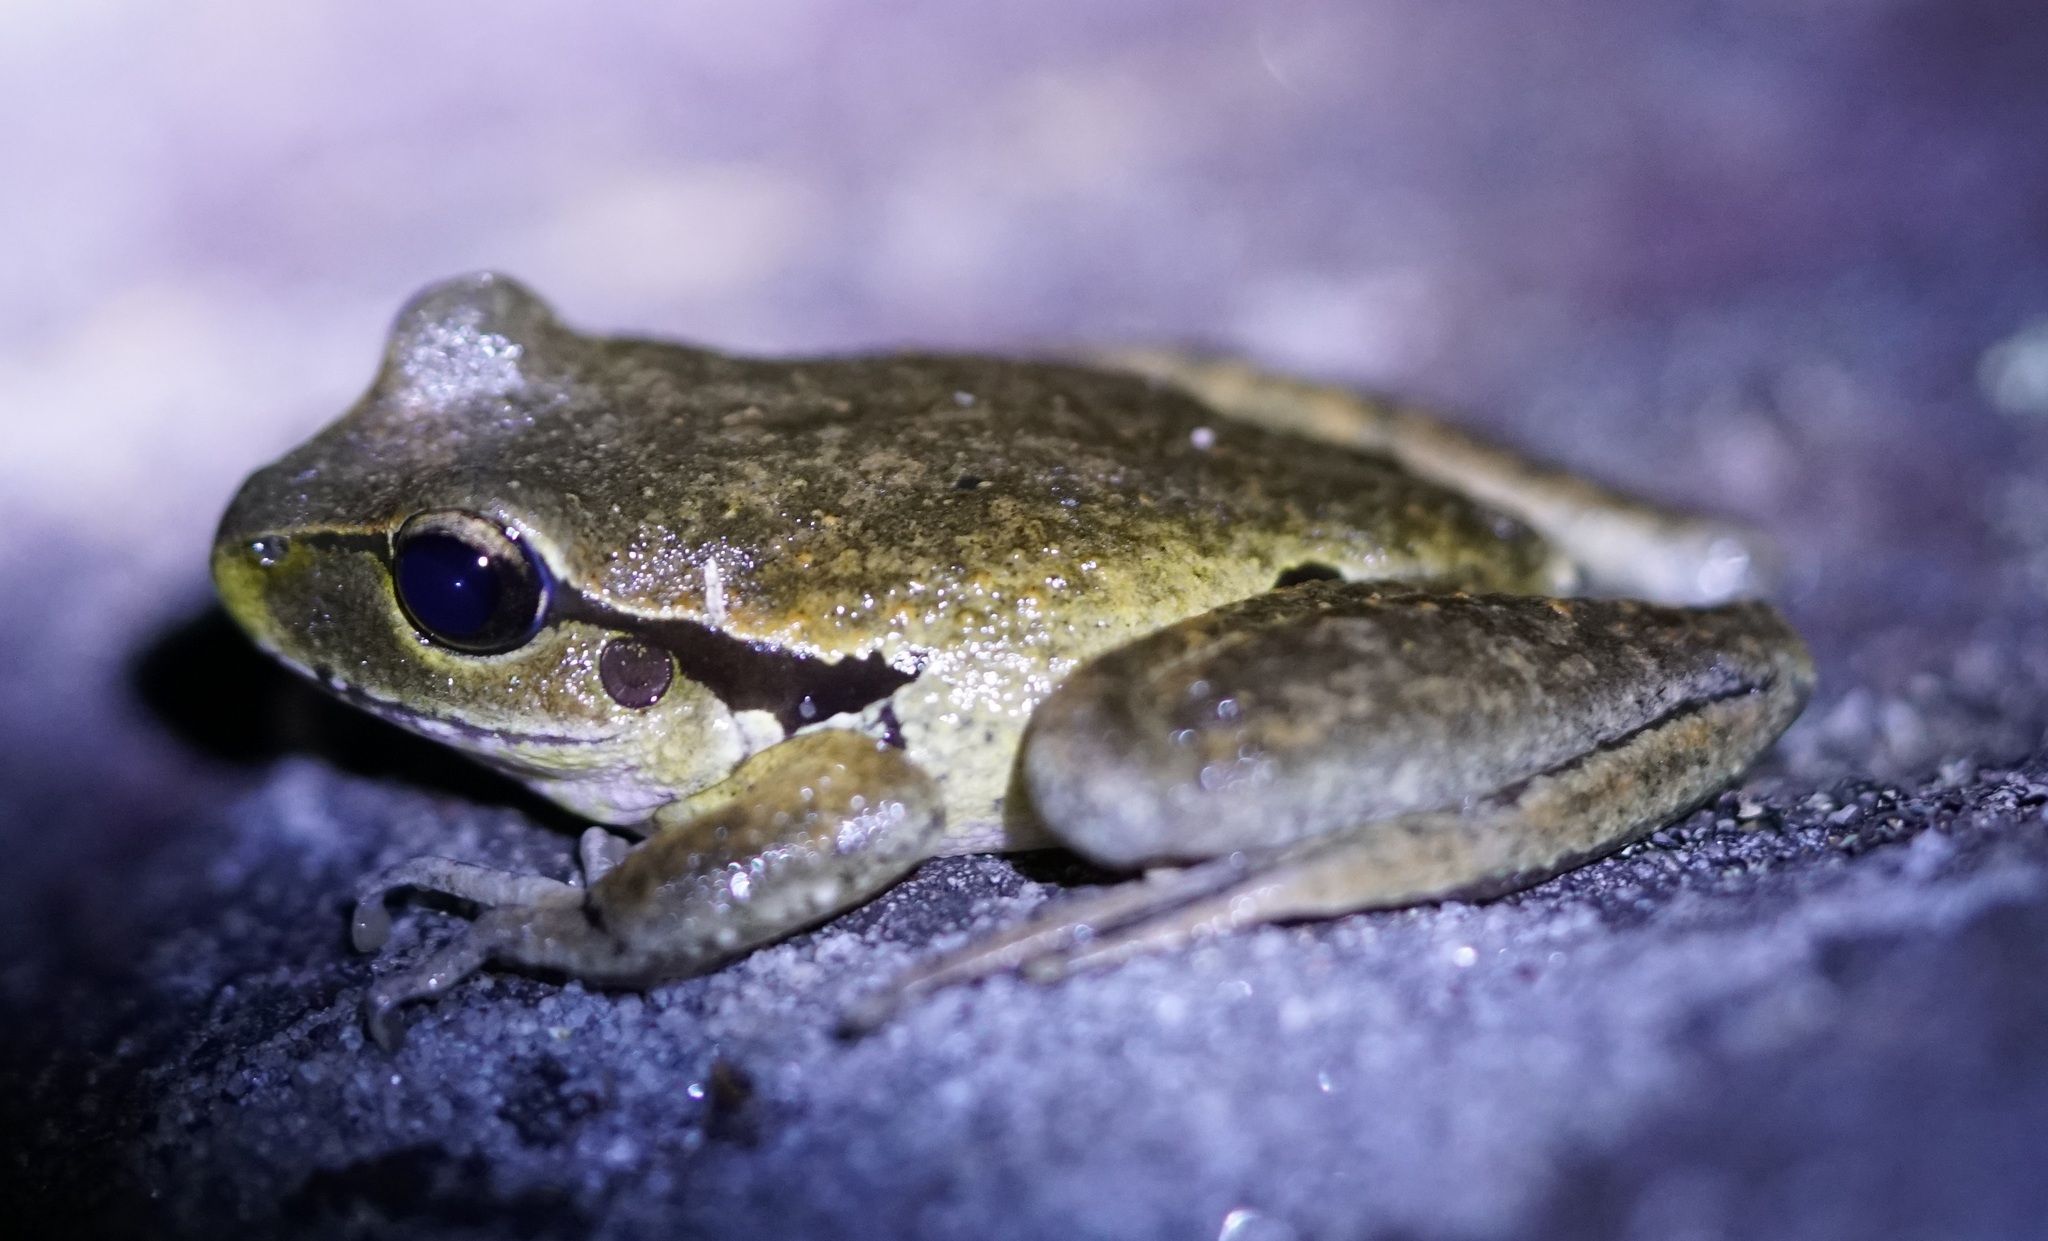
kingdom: Animalia
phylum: Chordata
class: Amphibia
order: Anura
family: Pelodryadidae
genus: Ranoidea
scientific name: Ranoidea lesueurii
